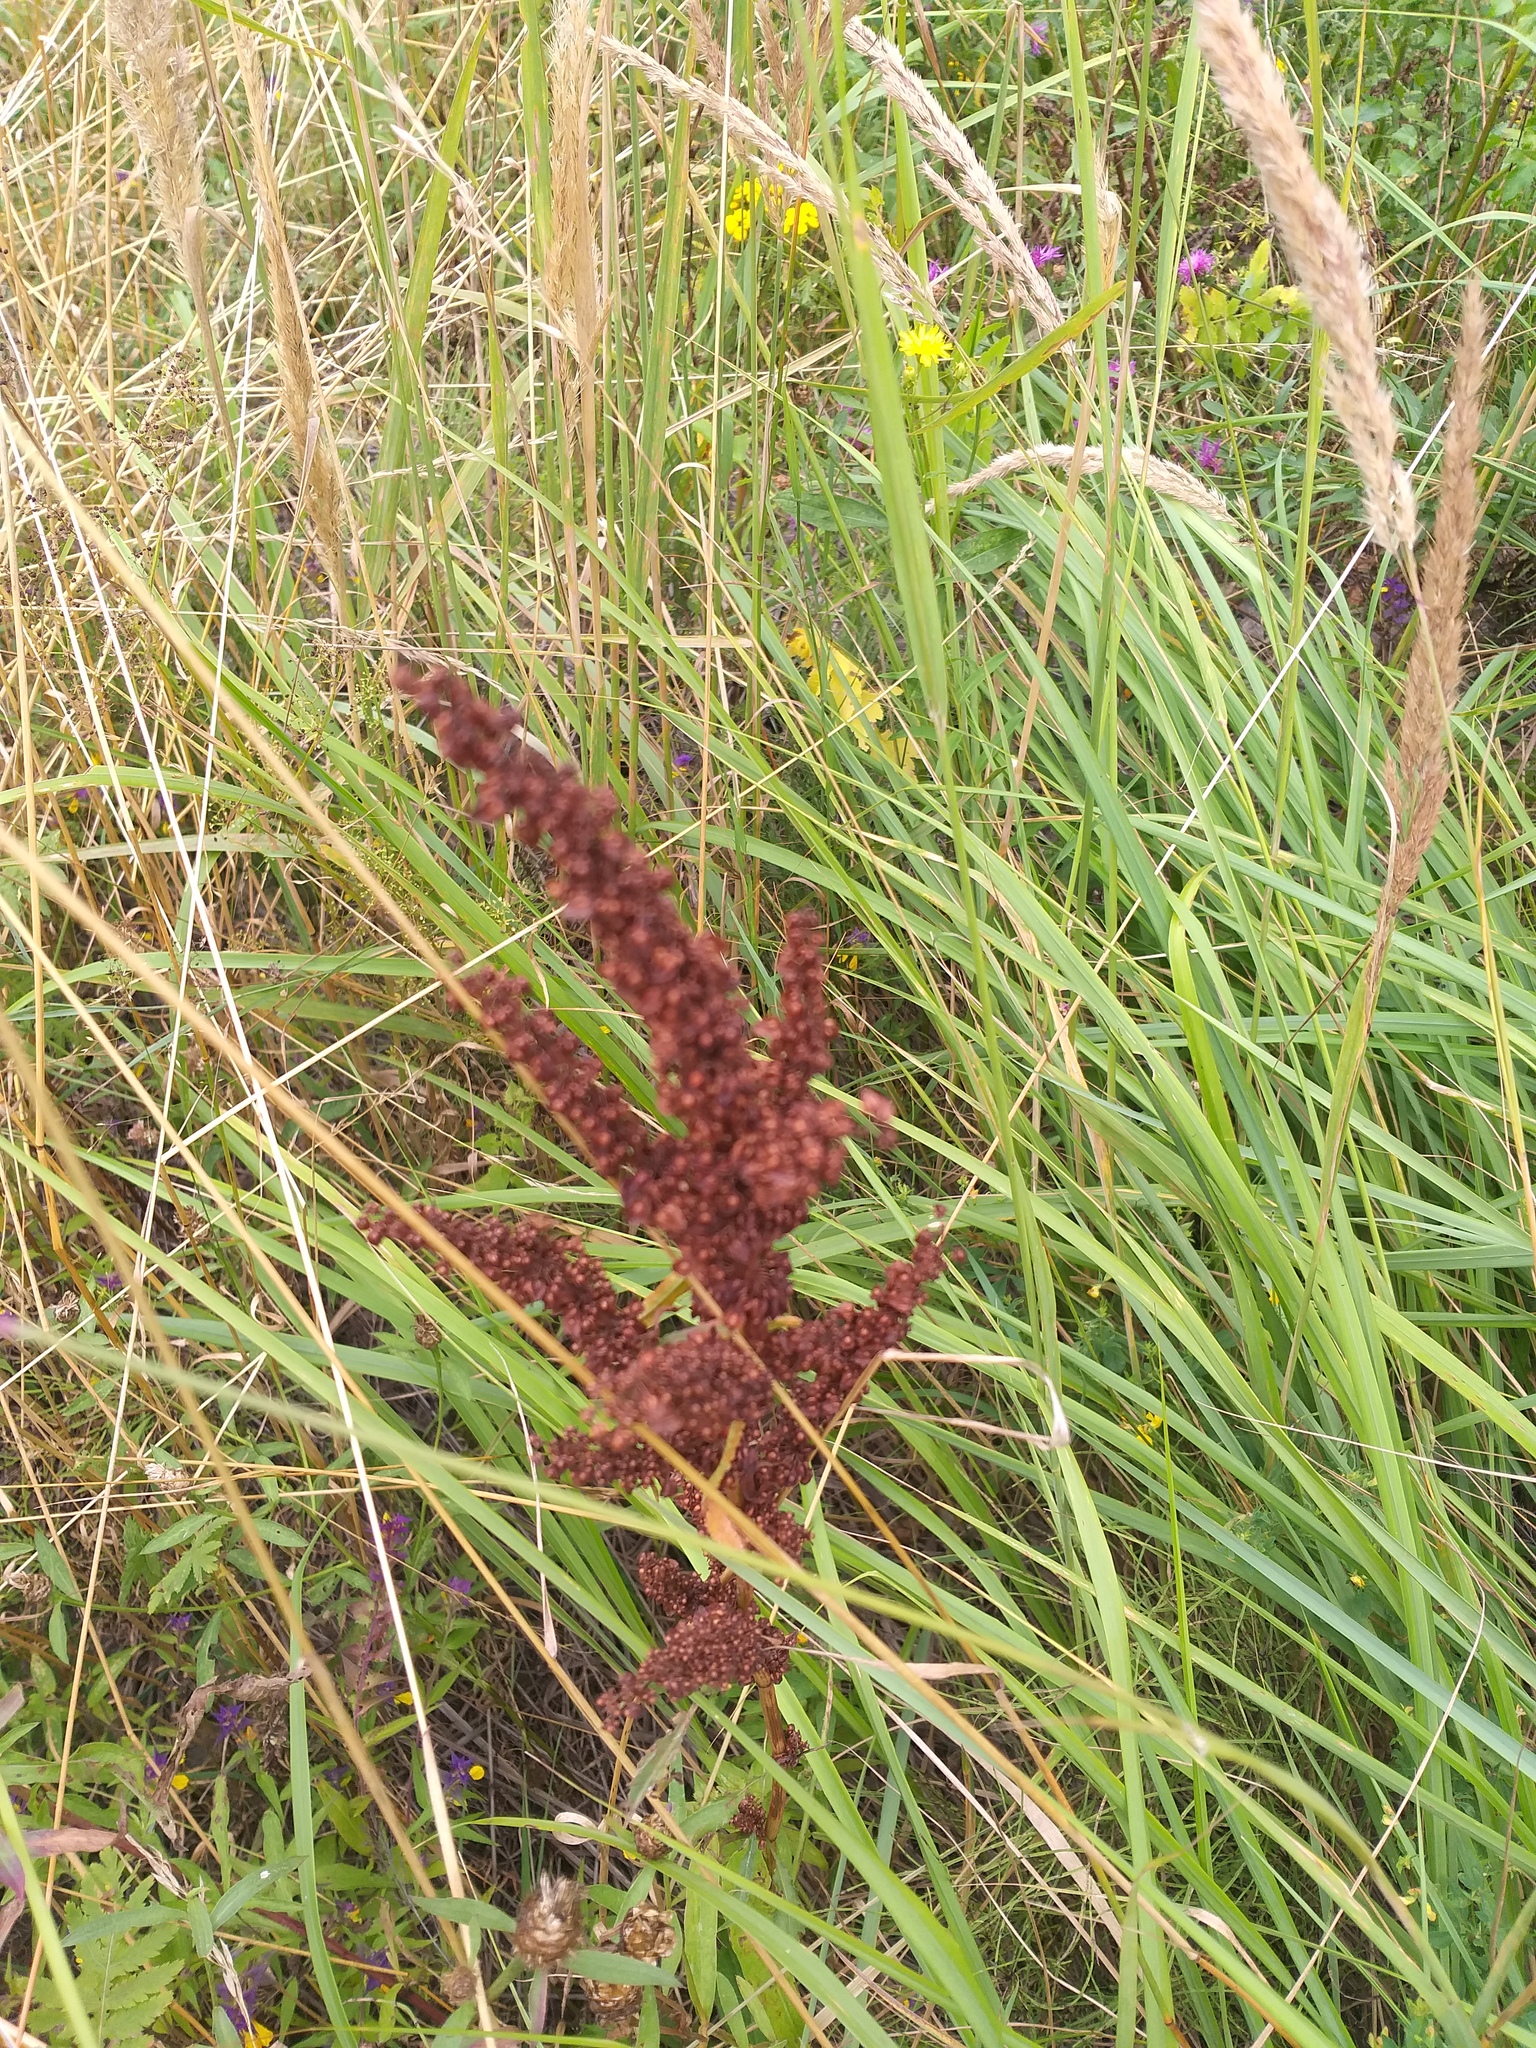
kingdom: Plantae
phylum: Tracheophyta
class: Magnoliopsida
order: Caryophyllales
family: Polygonaceae
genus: Rumex
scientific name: Rumex crispus
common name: Curled dock
